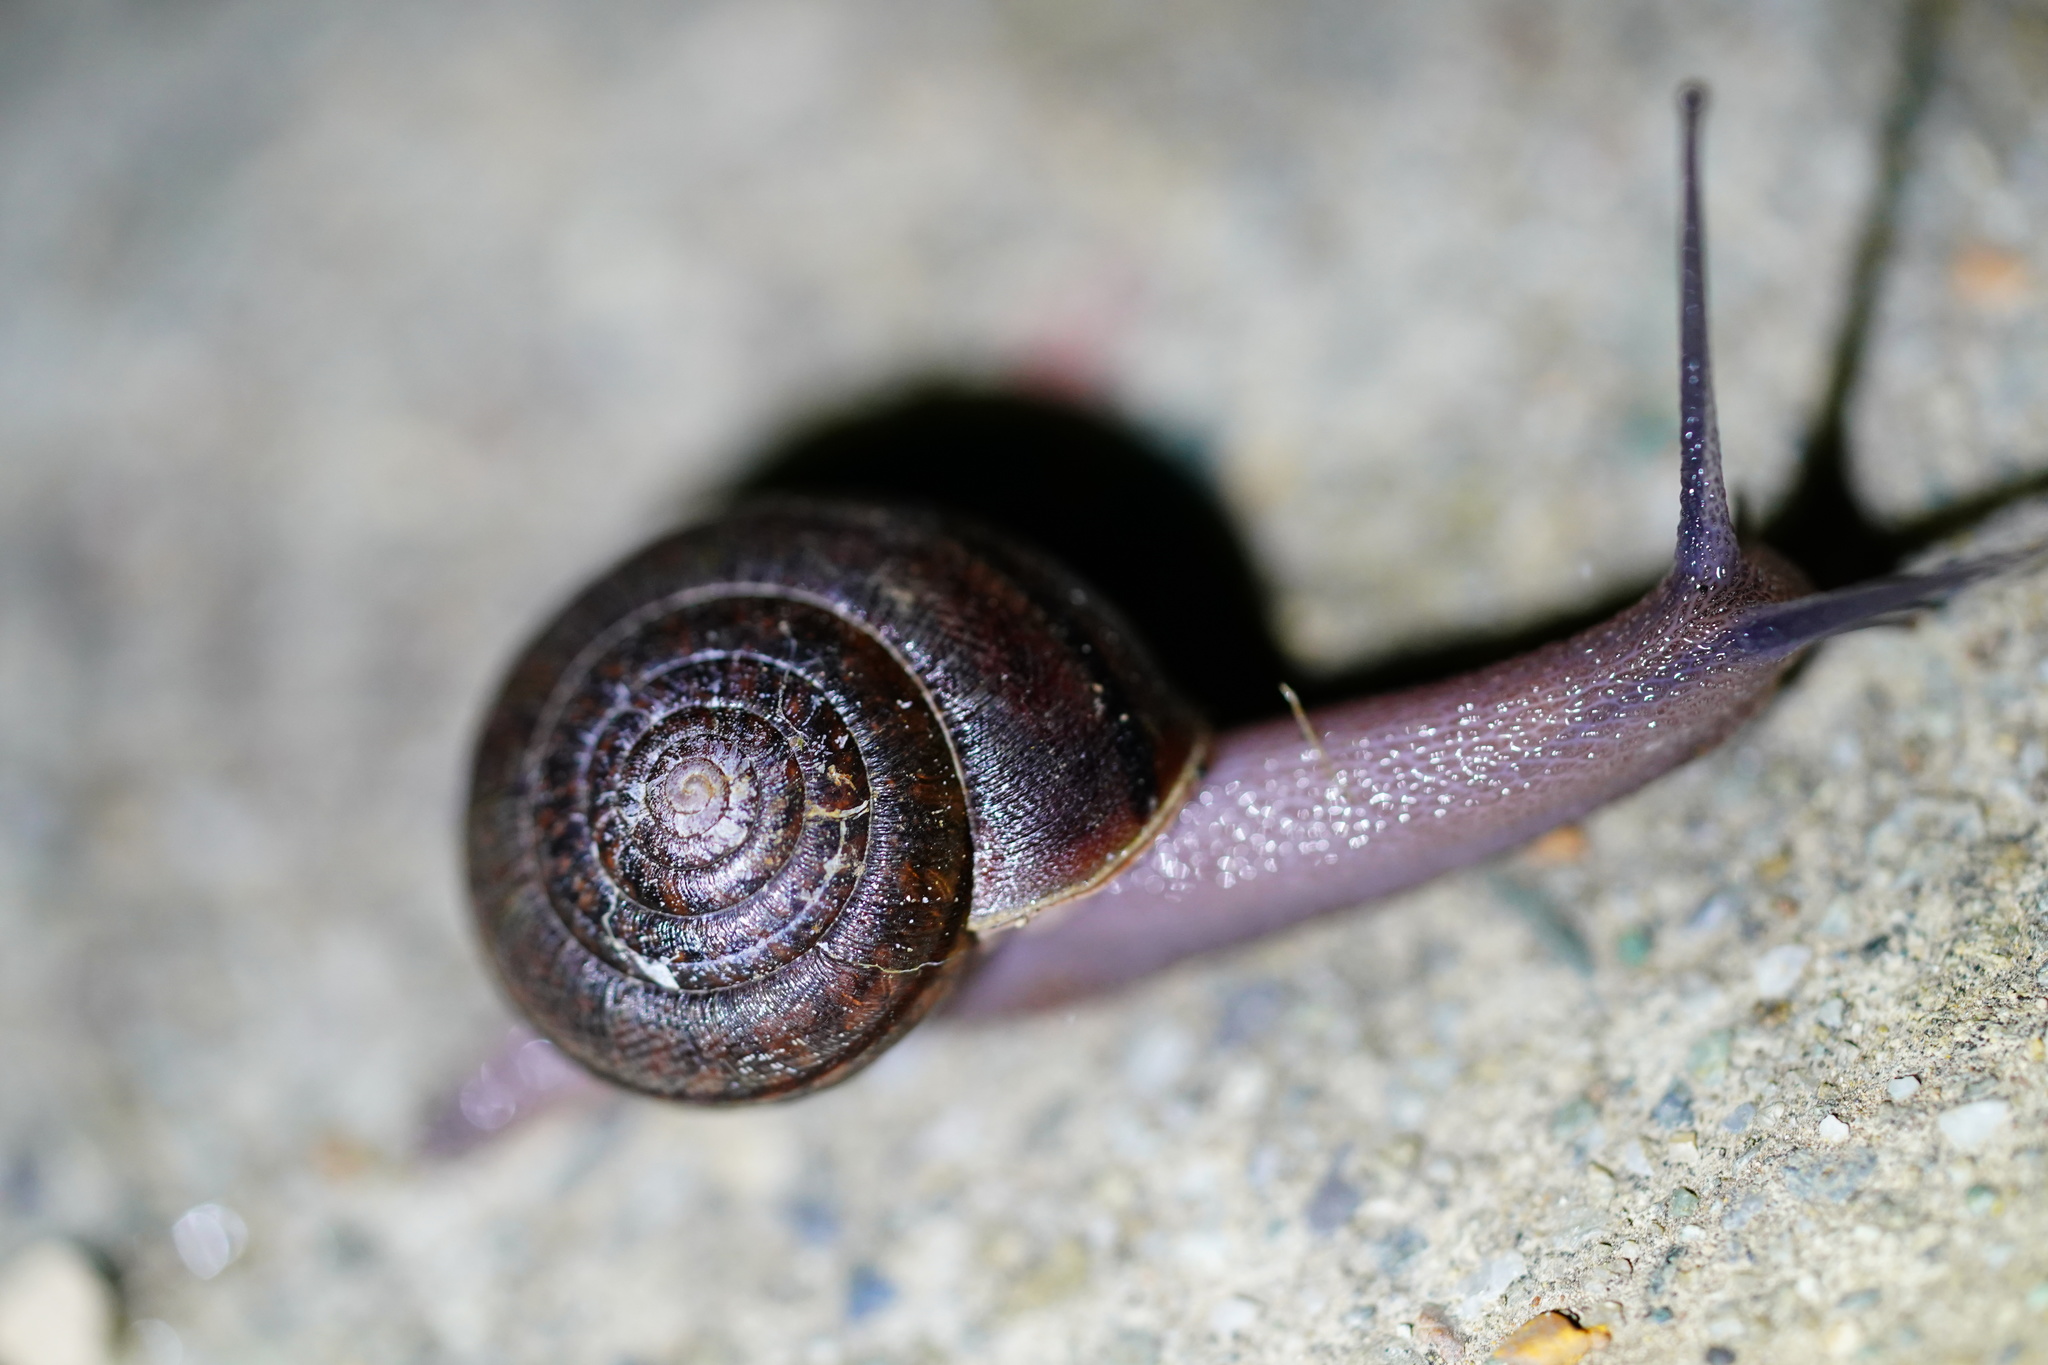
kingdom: Animalia
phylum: Mollusca
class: Gastropoda
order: Stylommatophora
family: Xanthonychidae
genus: Helminthoglypta
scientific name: Helminthoglypta diabloensis
